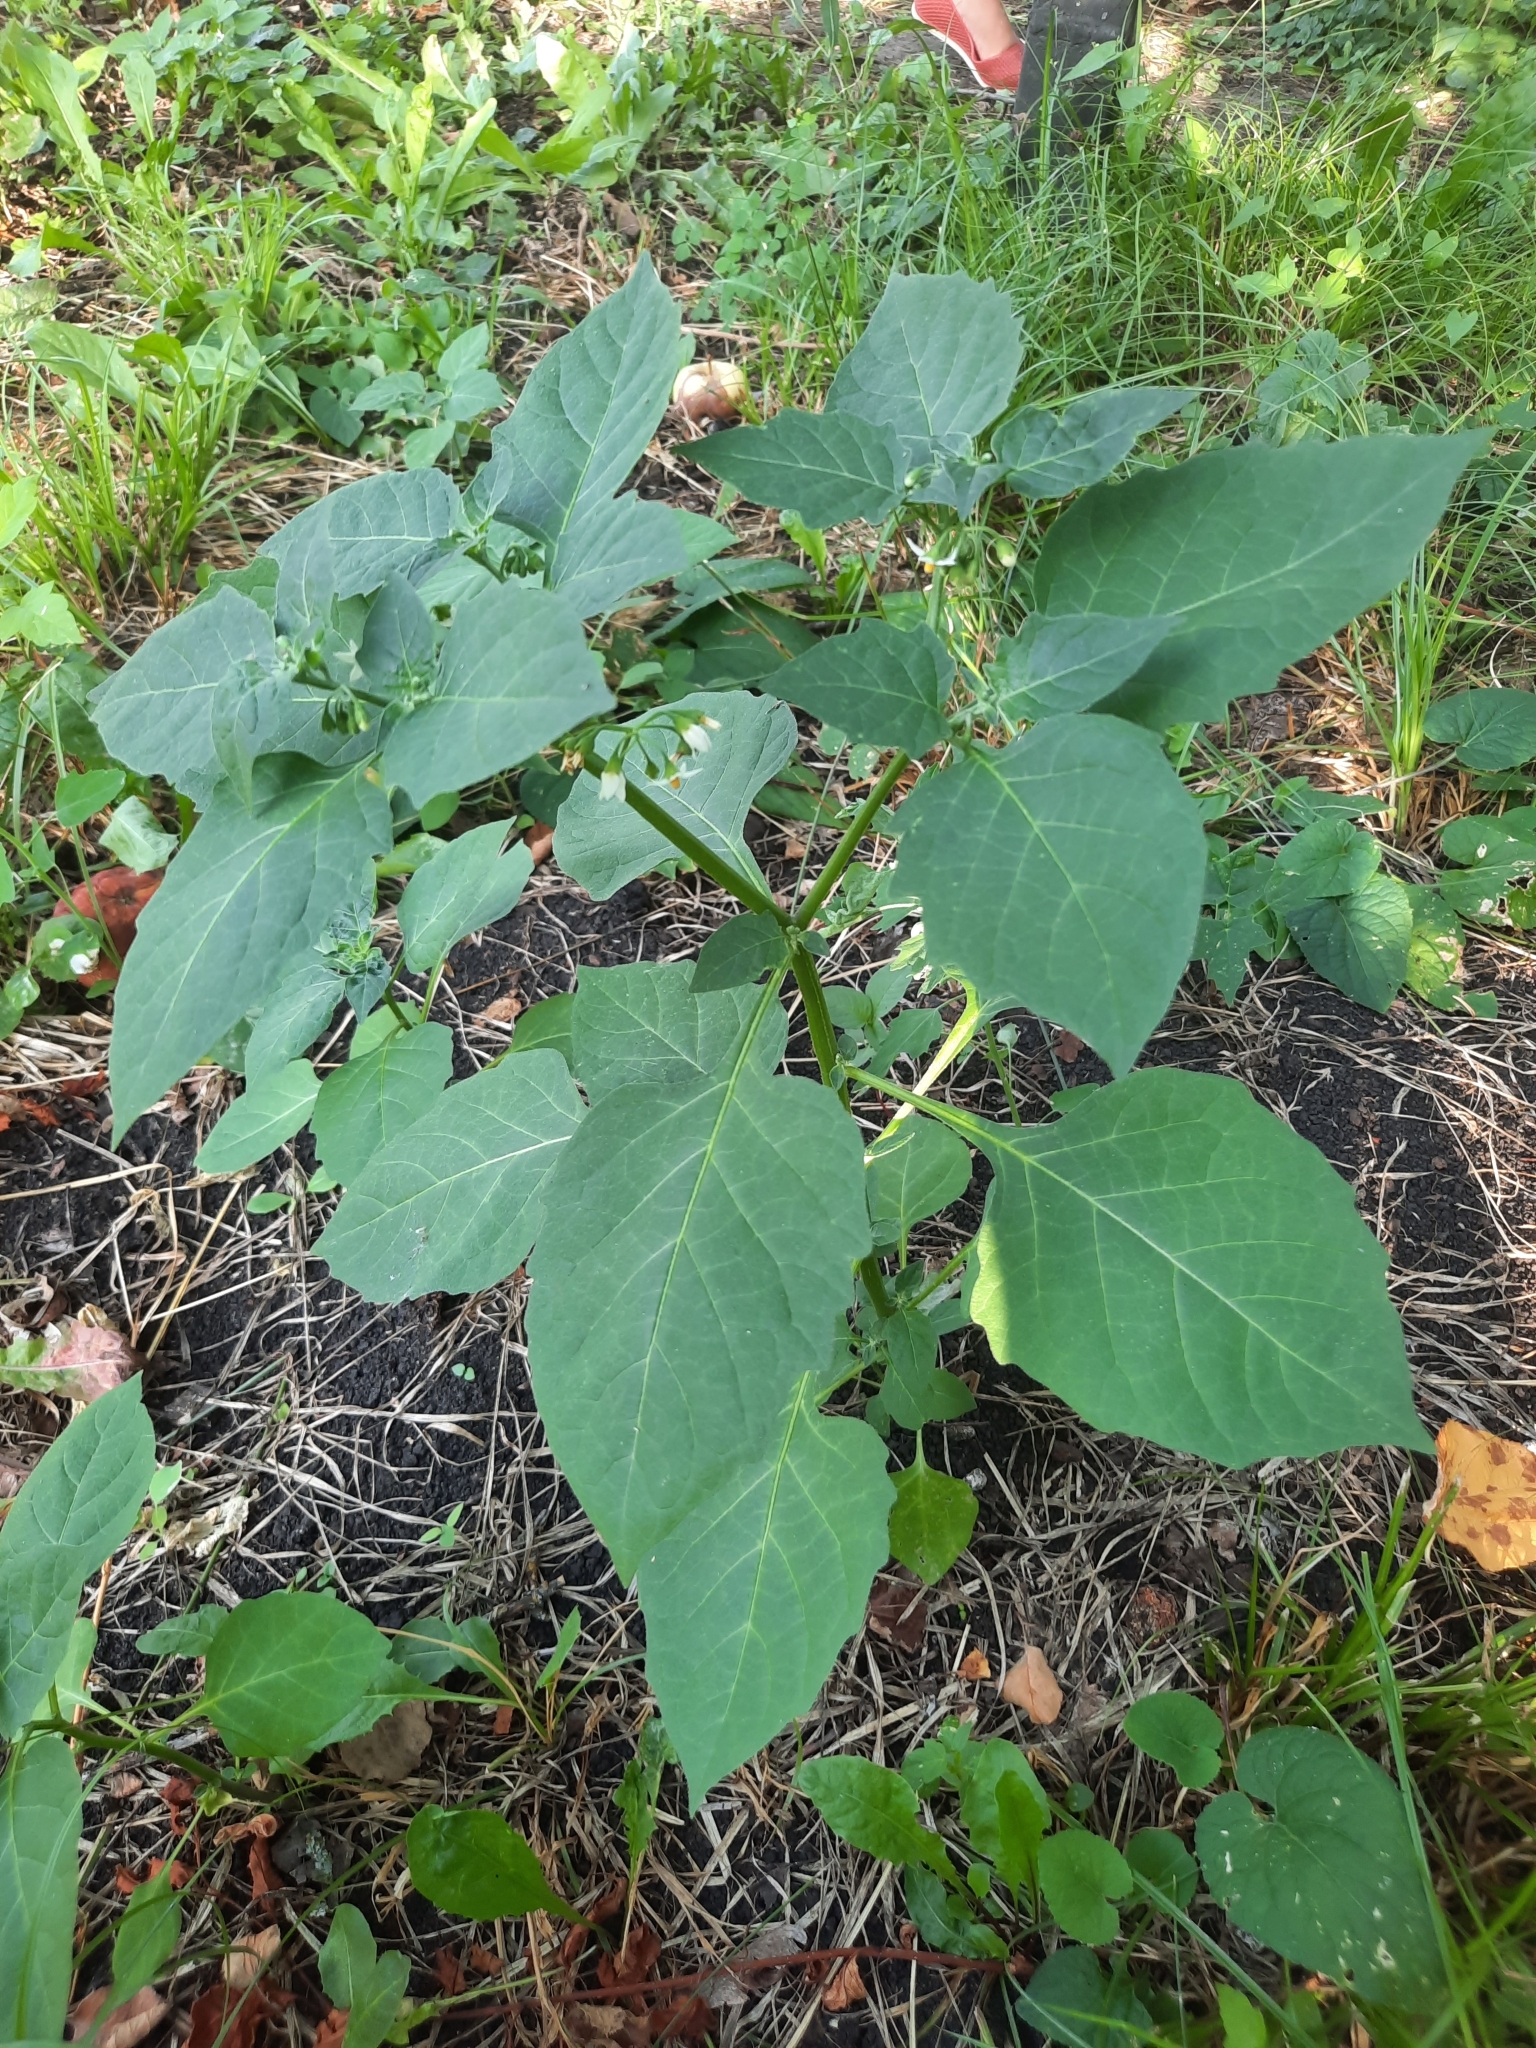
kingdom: Plantae
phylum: Tracheophyta
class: Magnoliopsida
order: Solanales
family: Solanaceae
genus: Solanum
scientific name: Solanum nigrum
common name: Black nightshade
